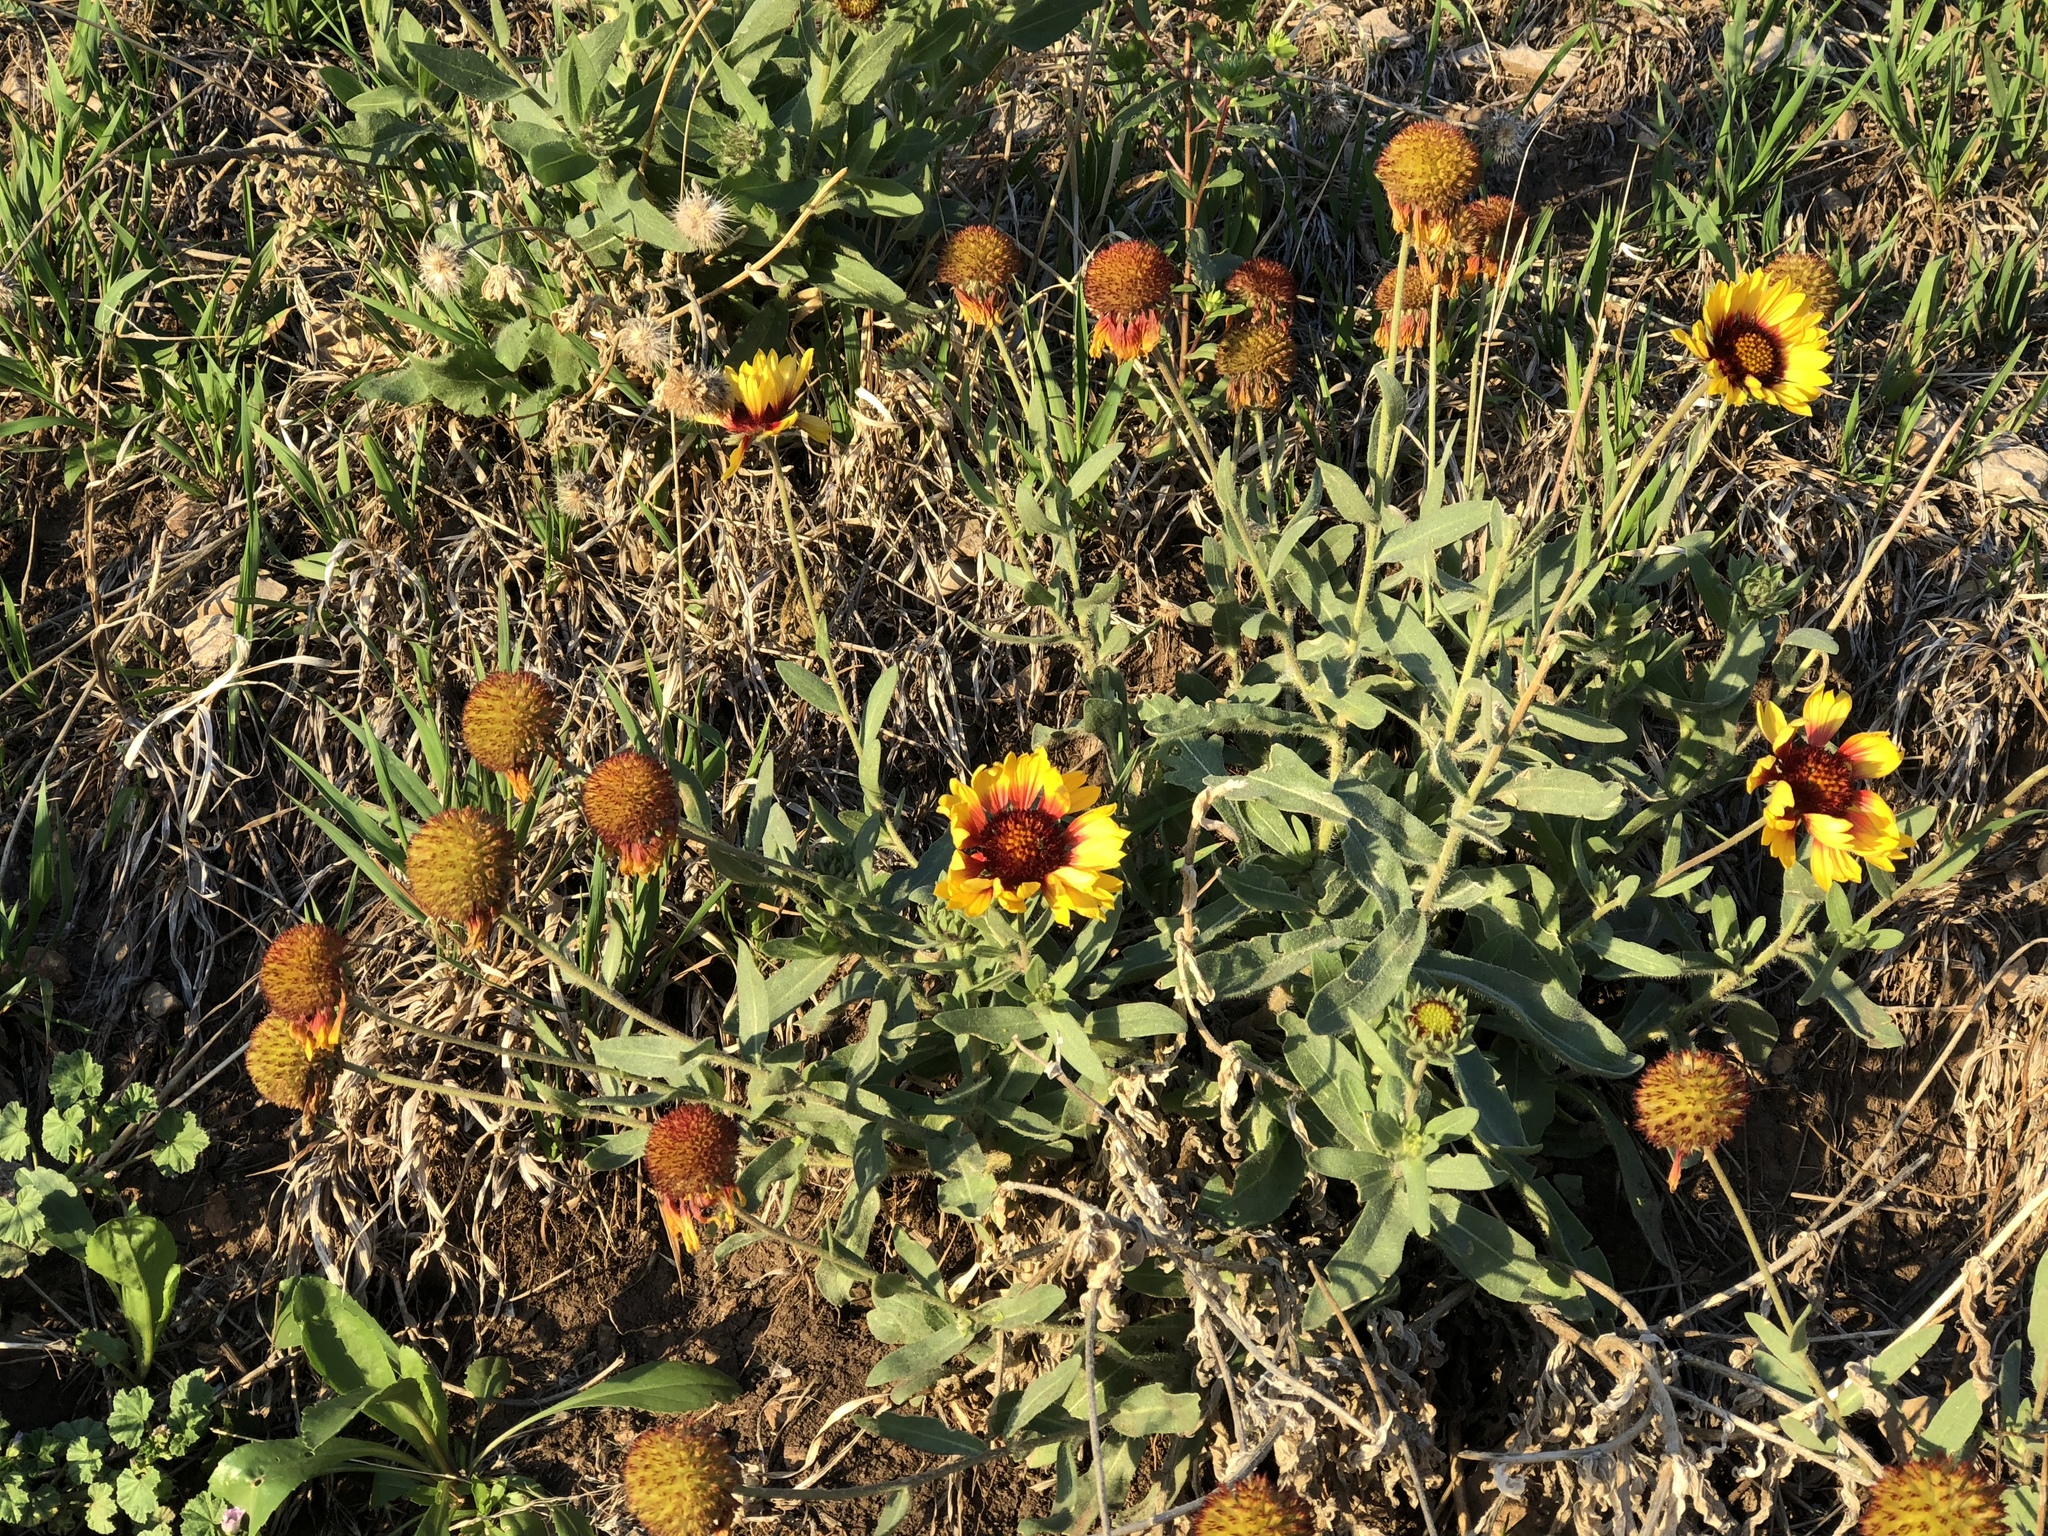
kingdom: Plantae
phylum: Tracheophyta
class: Magnoliopsida
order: Asterales
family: Asteraceae
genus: Gaillardia
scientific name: Gaillardia pulchella
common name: Firewheel
